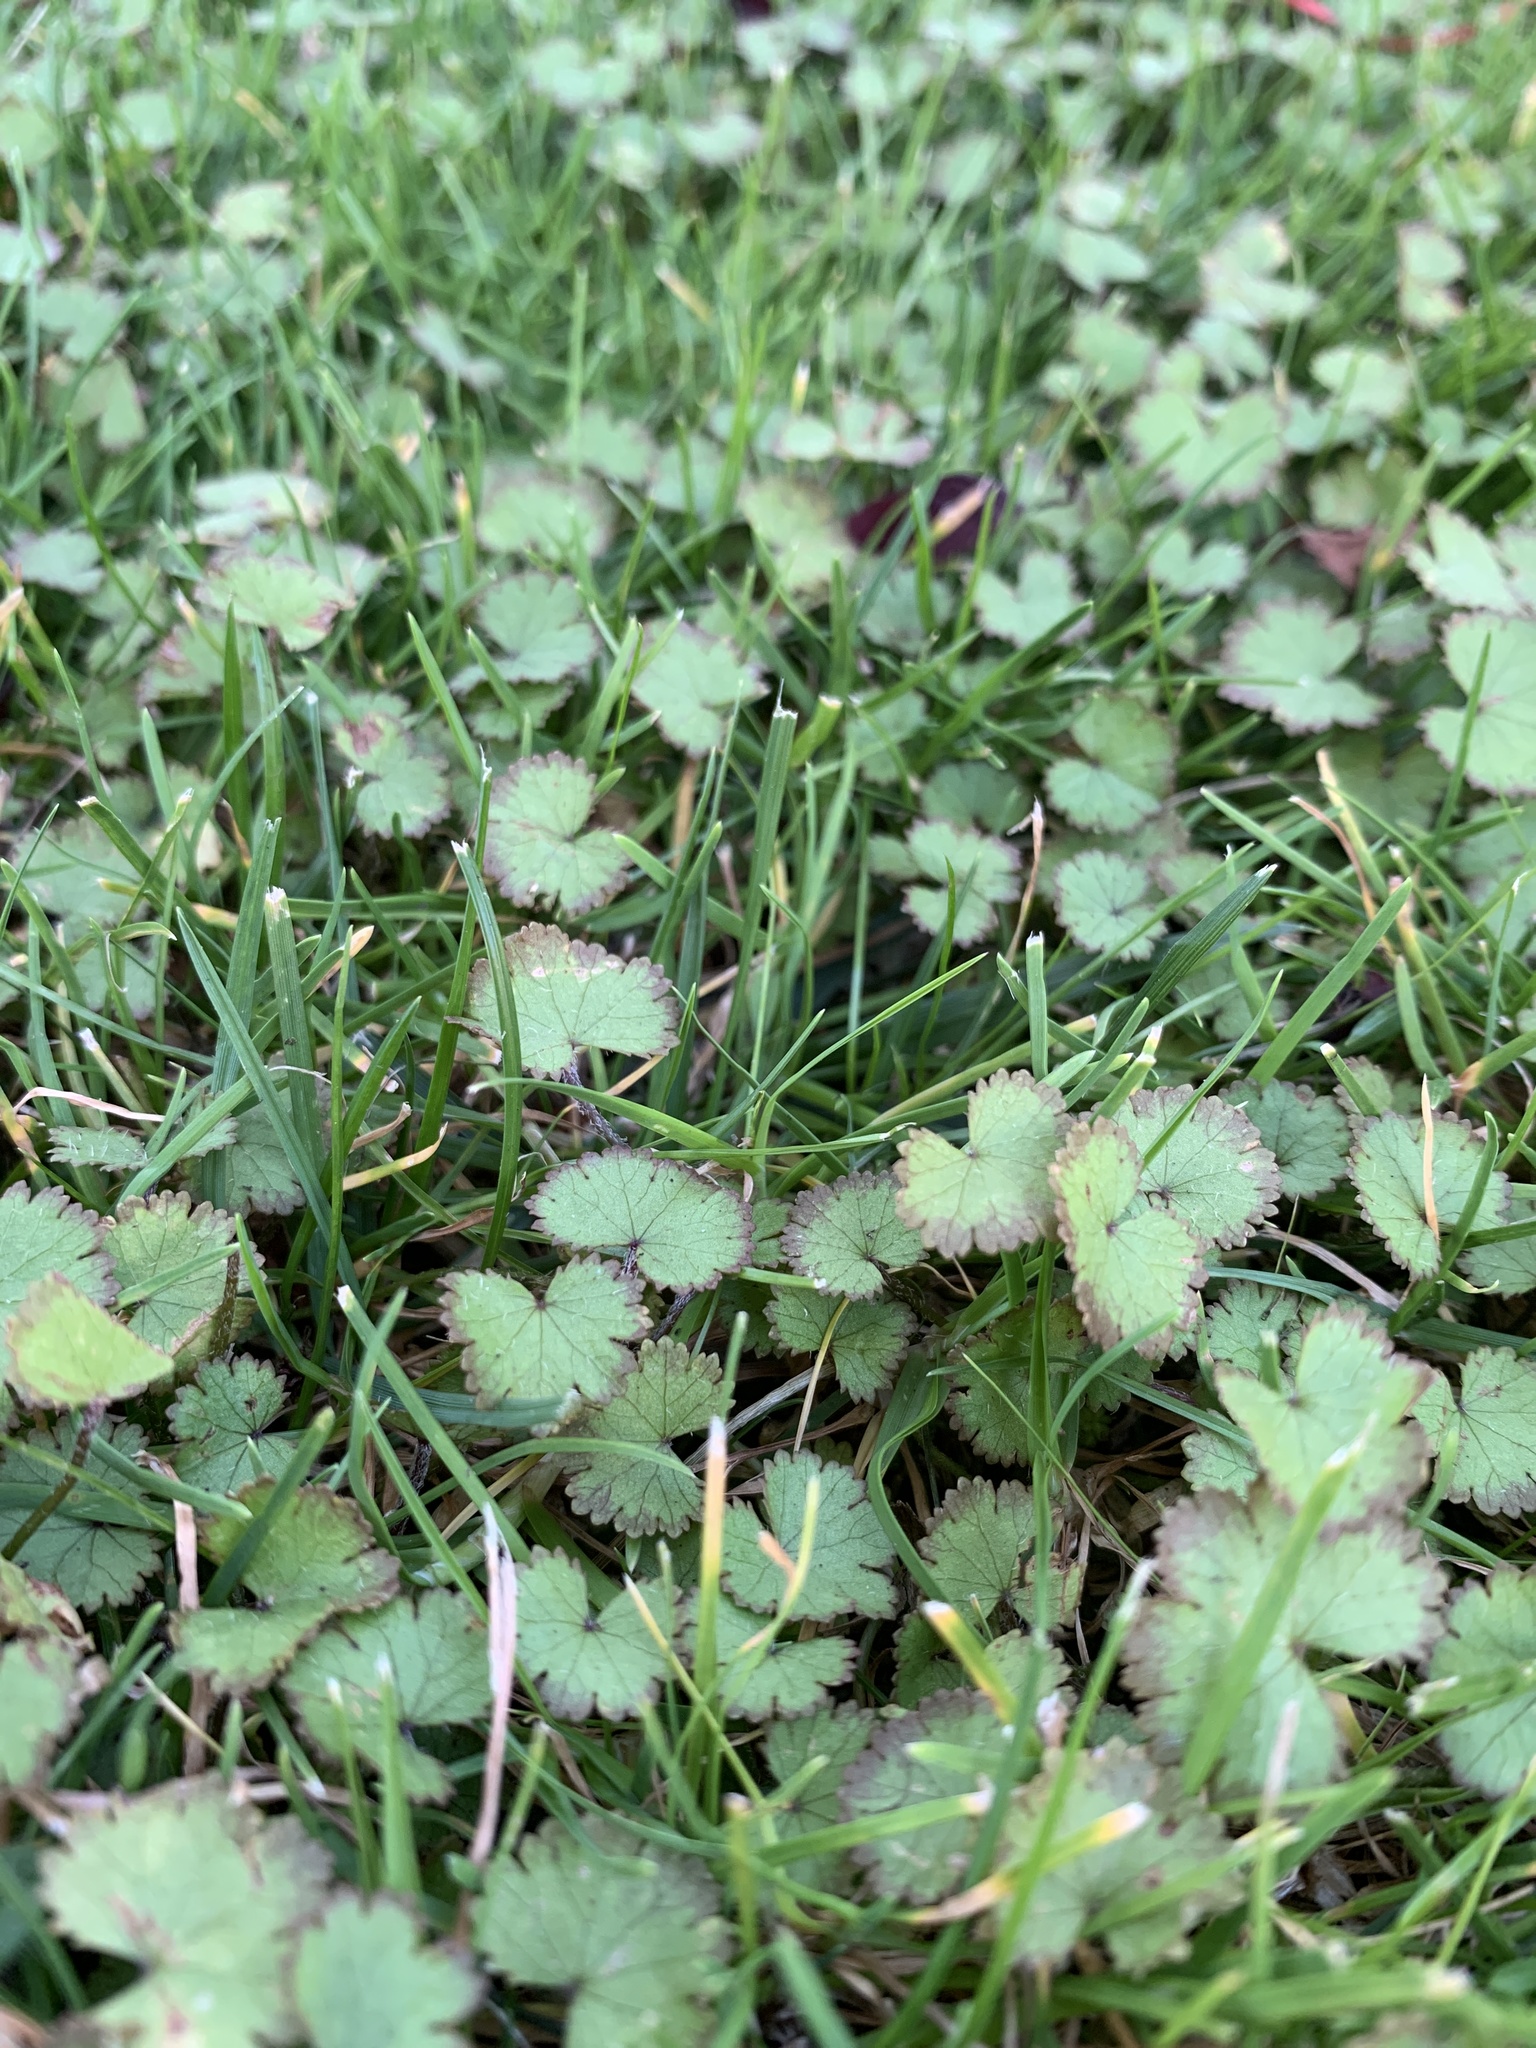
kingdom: Plantae
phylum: Tracheophyta
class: Magnoliopsida
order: Apiales
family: Araliaceae
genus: Hydrocotyle
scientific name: Hydrocotyle moschata
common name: Hairy pennywort
